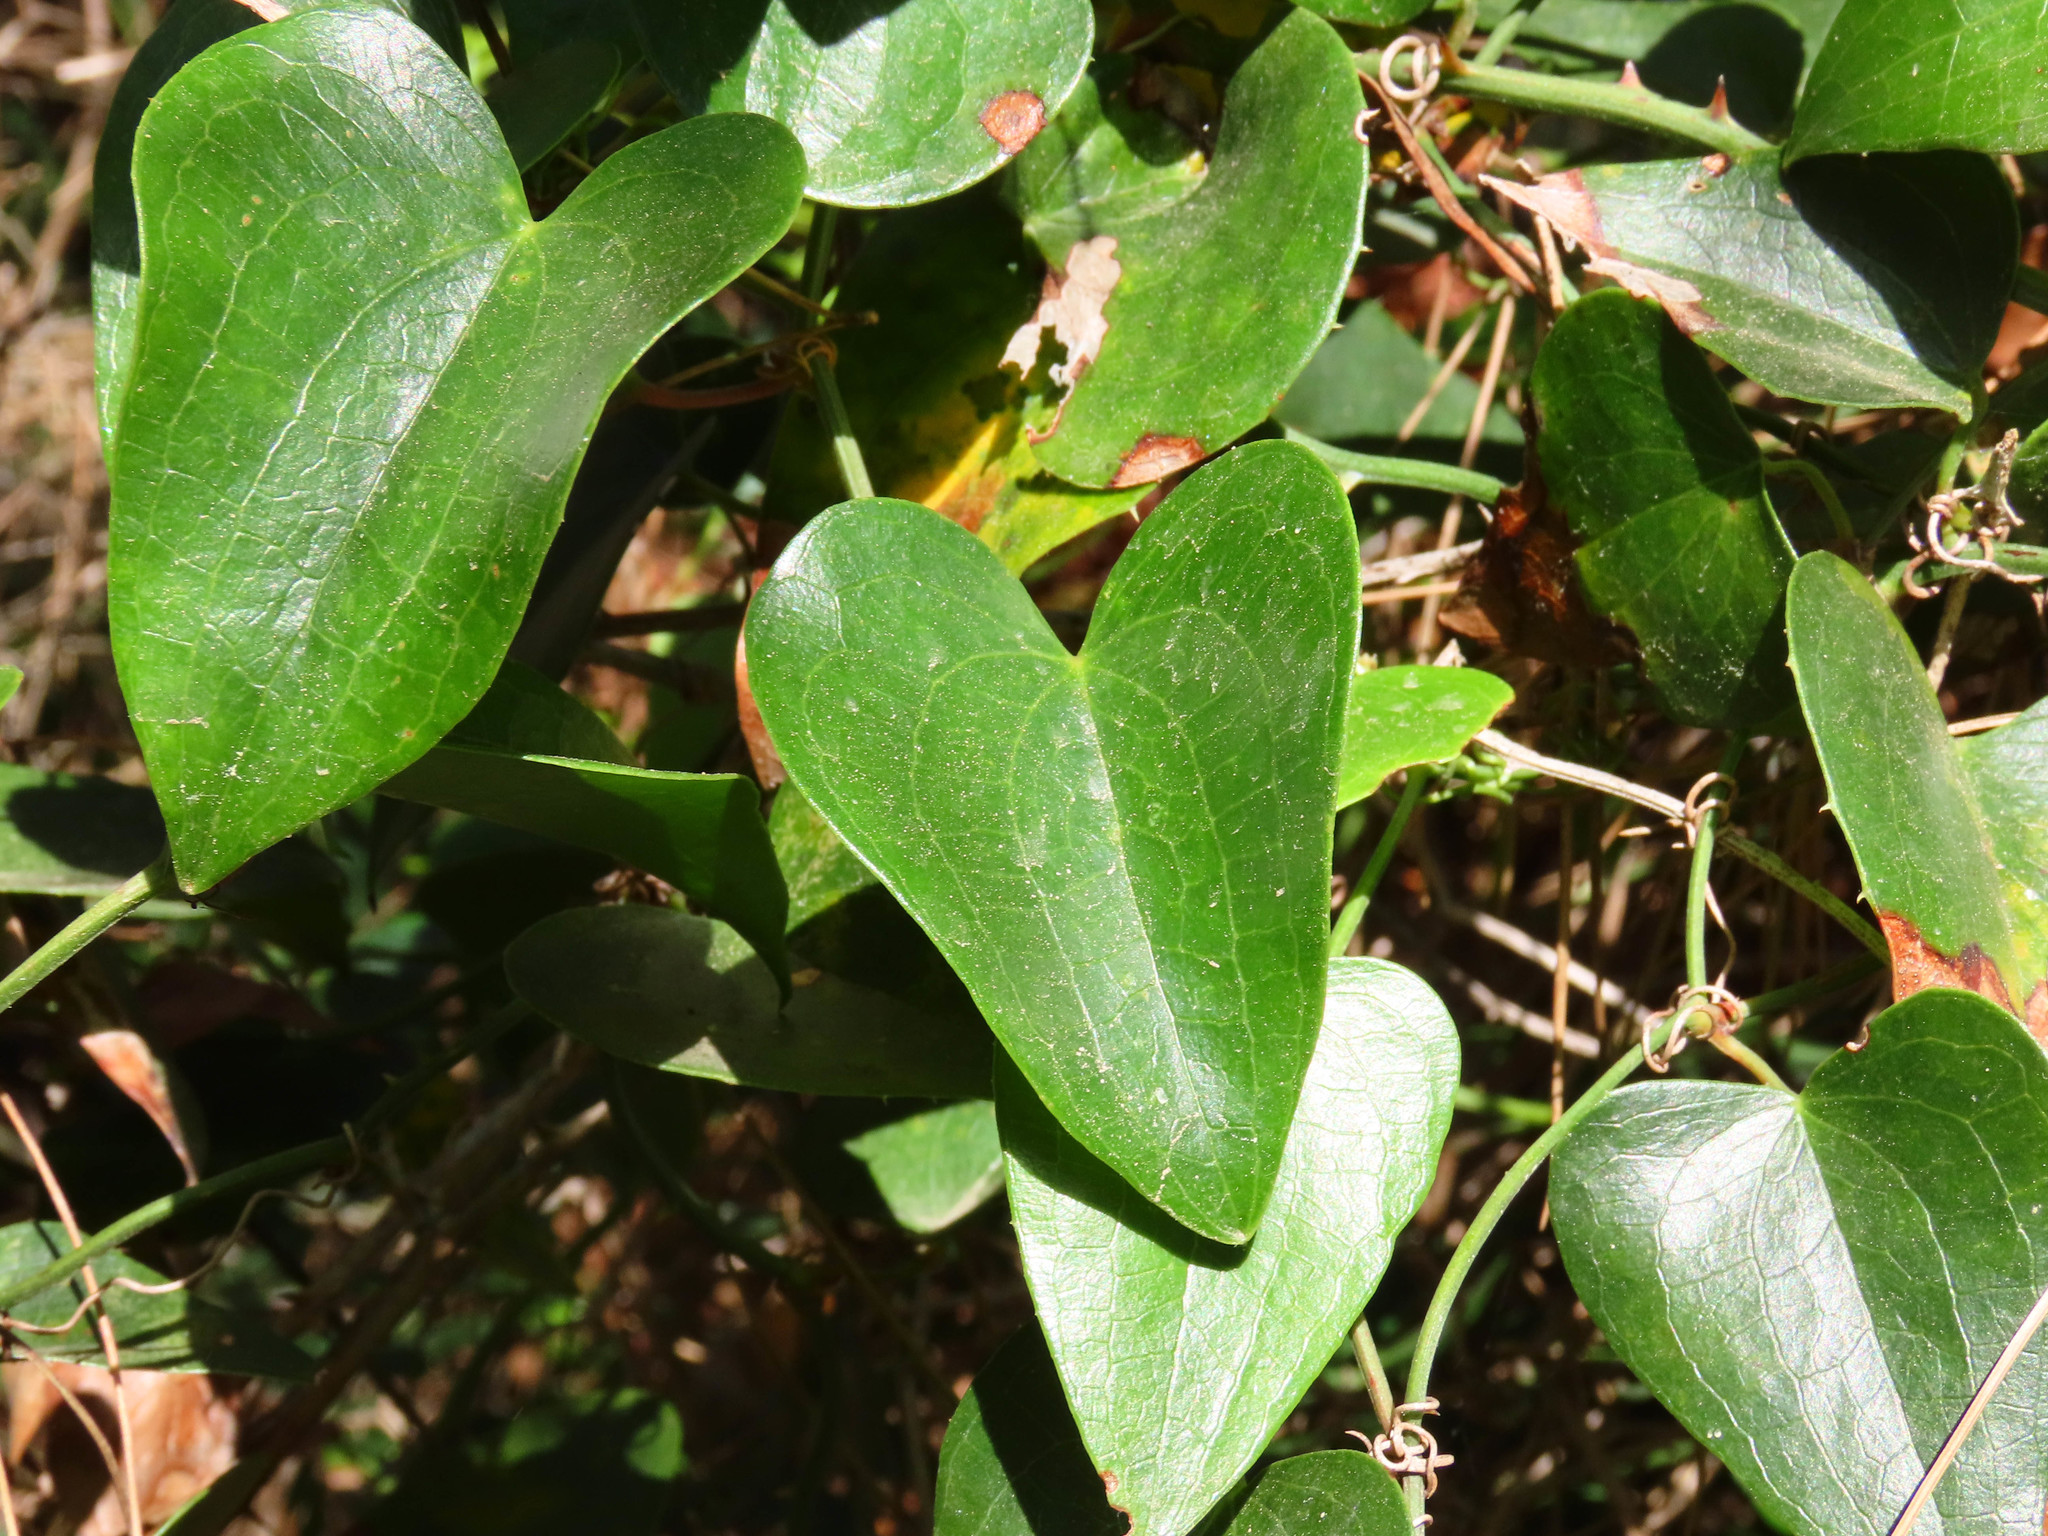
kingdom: Plantae
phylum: Tracheophyta
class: Liliopsida
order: Liliales
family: Smilacaceae
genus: Smilax
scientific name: Smilax aspera
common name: Common smilax
